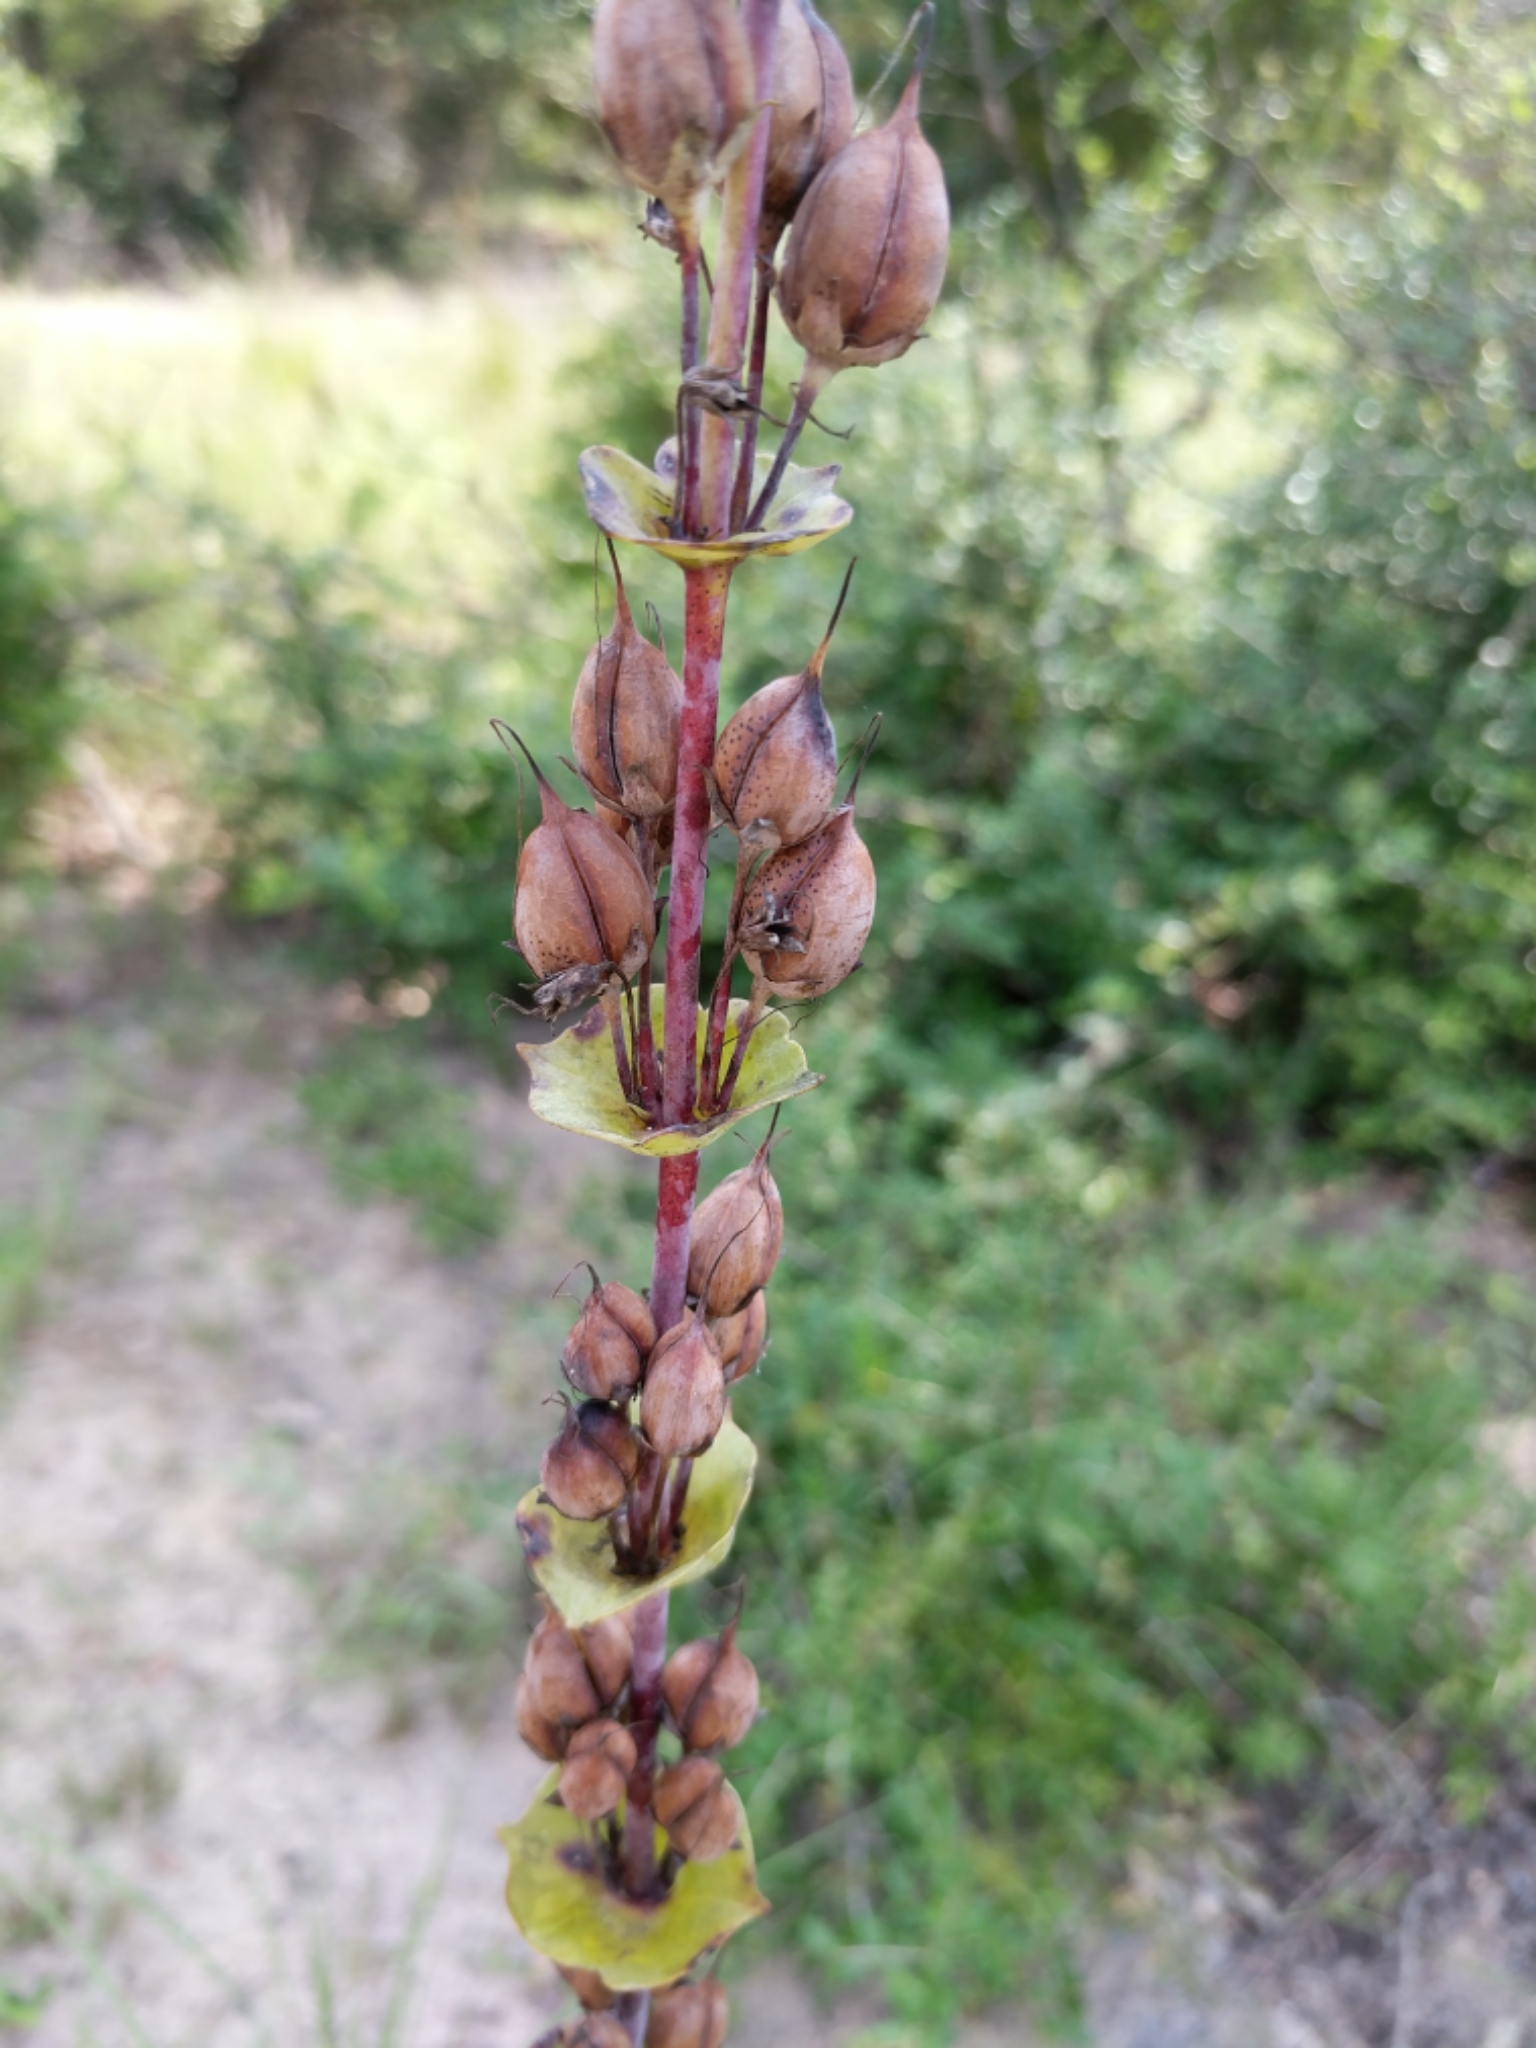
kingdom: Plantae
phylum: Tracheophyta
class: Magnoliopsida
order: Lamiales
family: Plantaginaceae
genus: Penstemon
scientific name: Penstemon murrayanus
